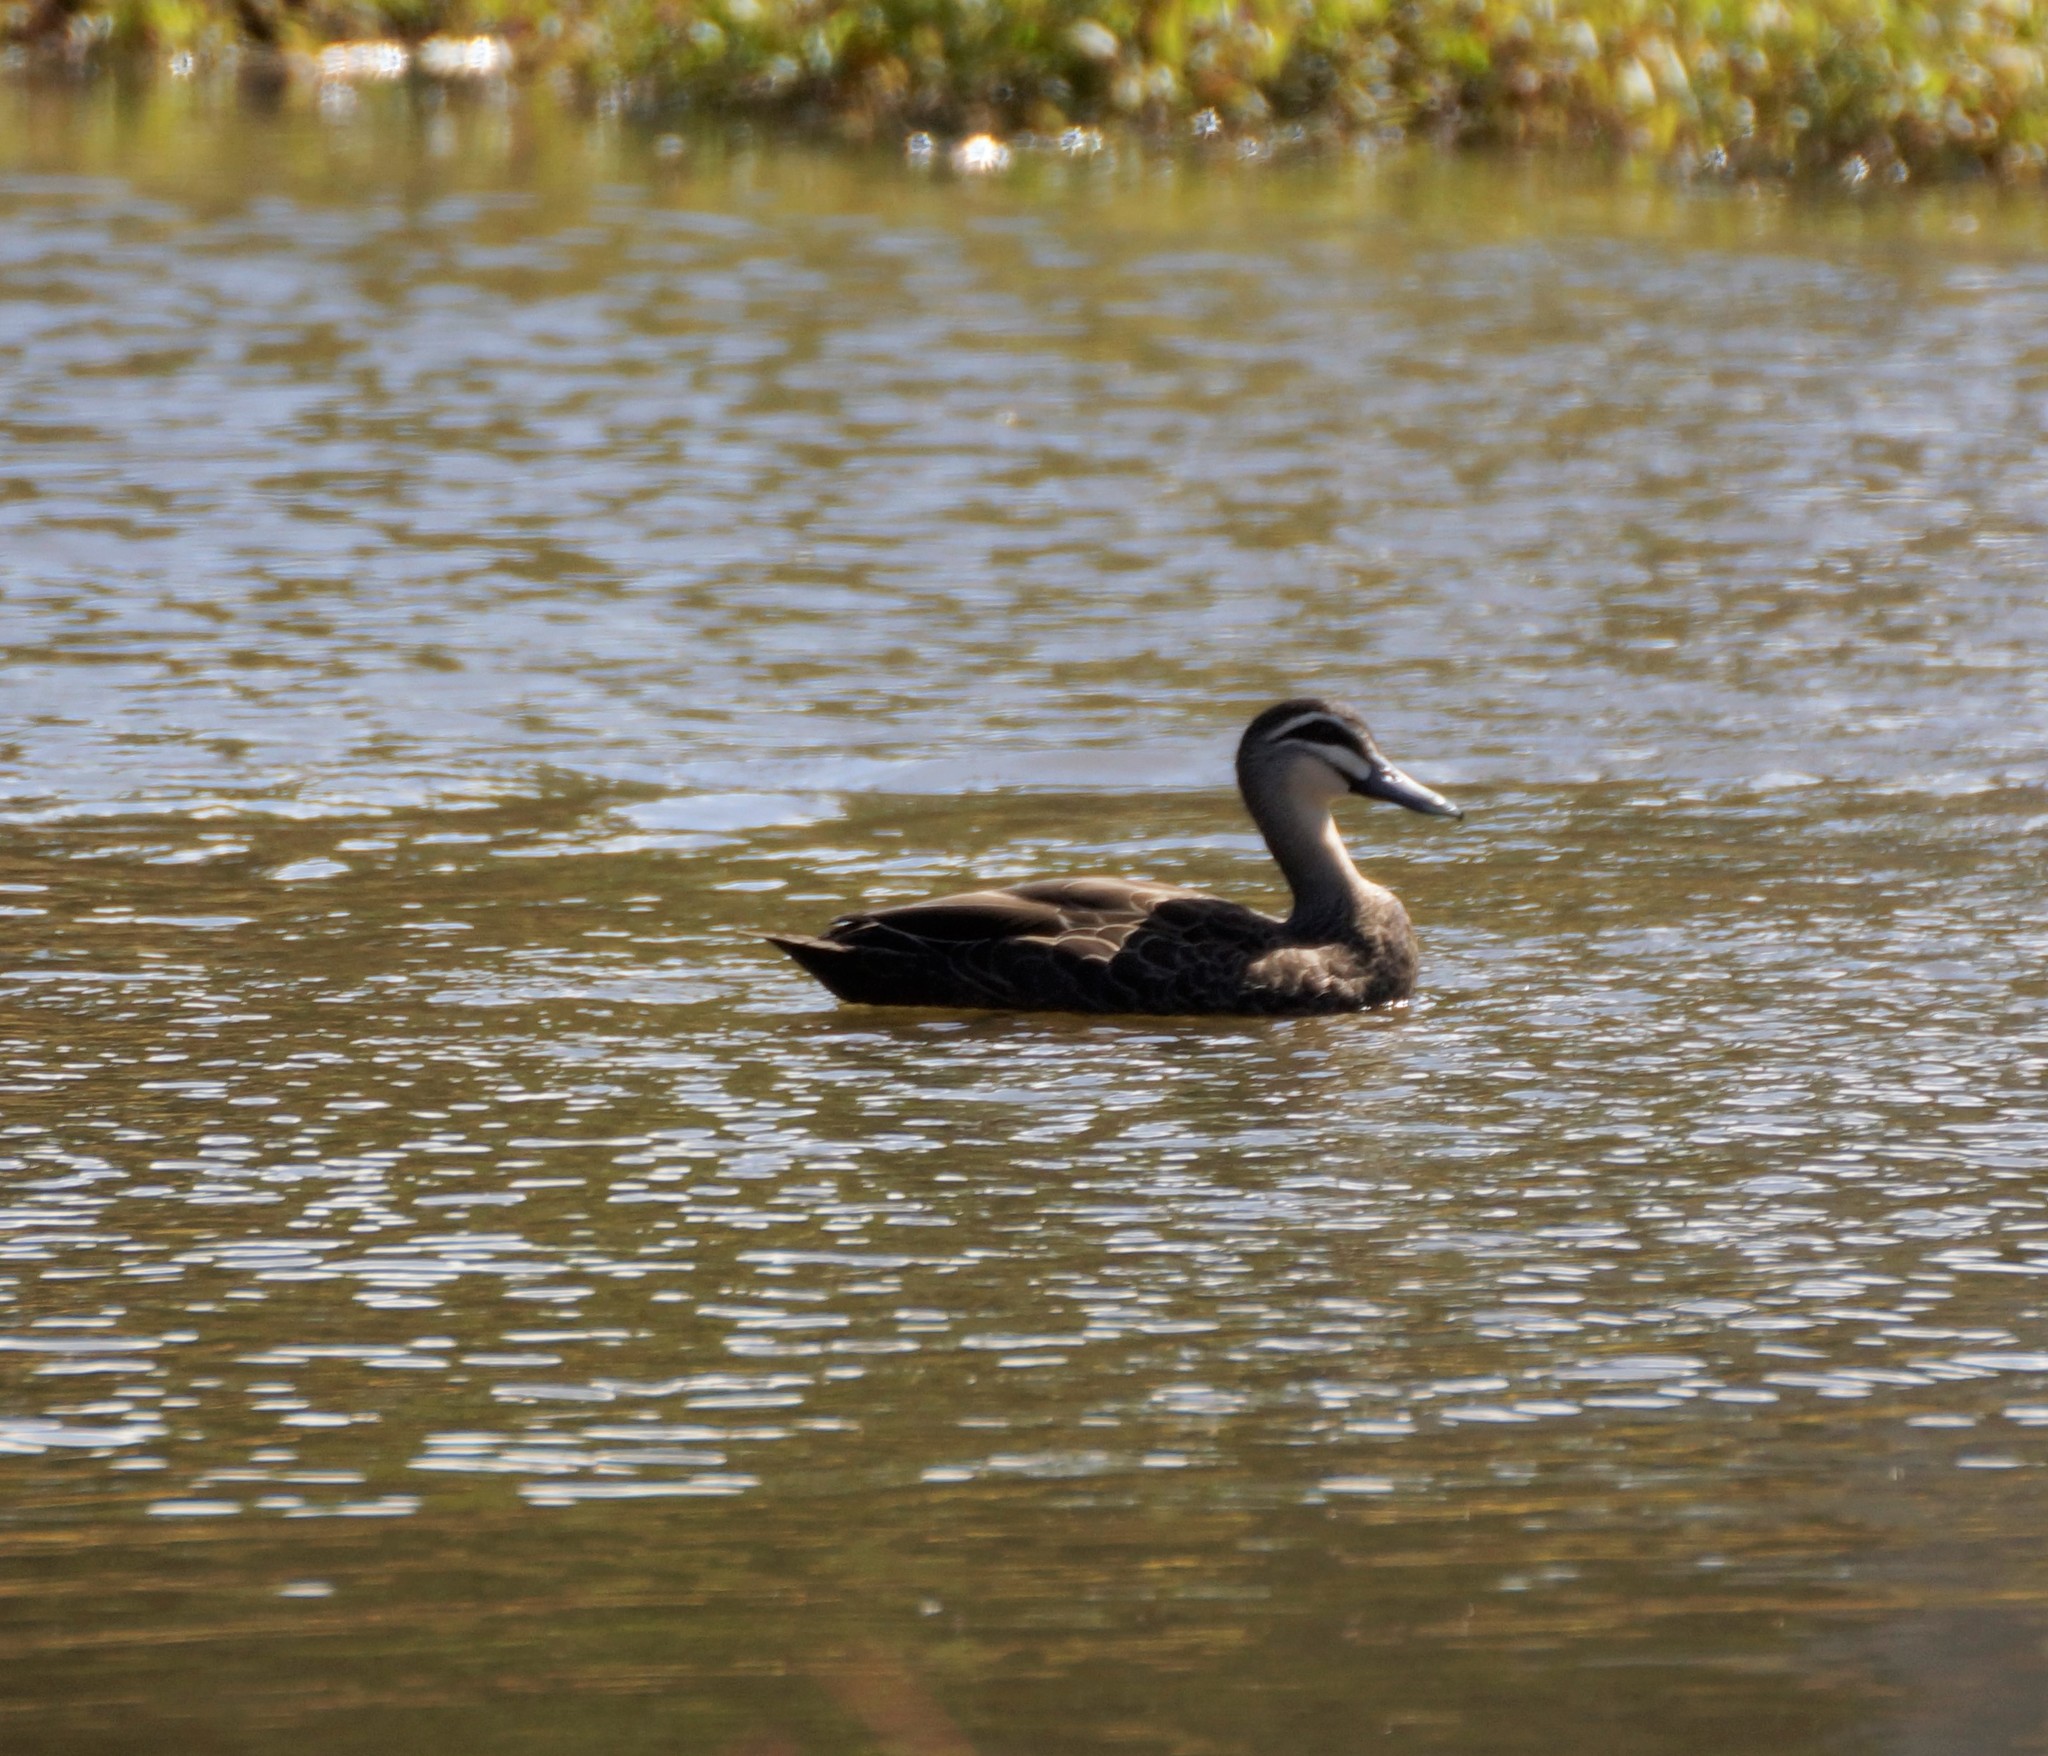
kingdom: Animalia
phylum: Chordata
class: Aves
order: Anseriformes
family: Anatidae
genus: Anas
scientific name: Anas superciliosa
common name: Pacific black duck
